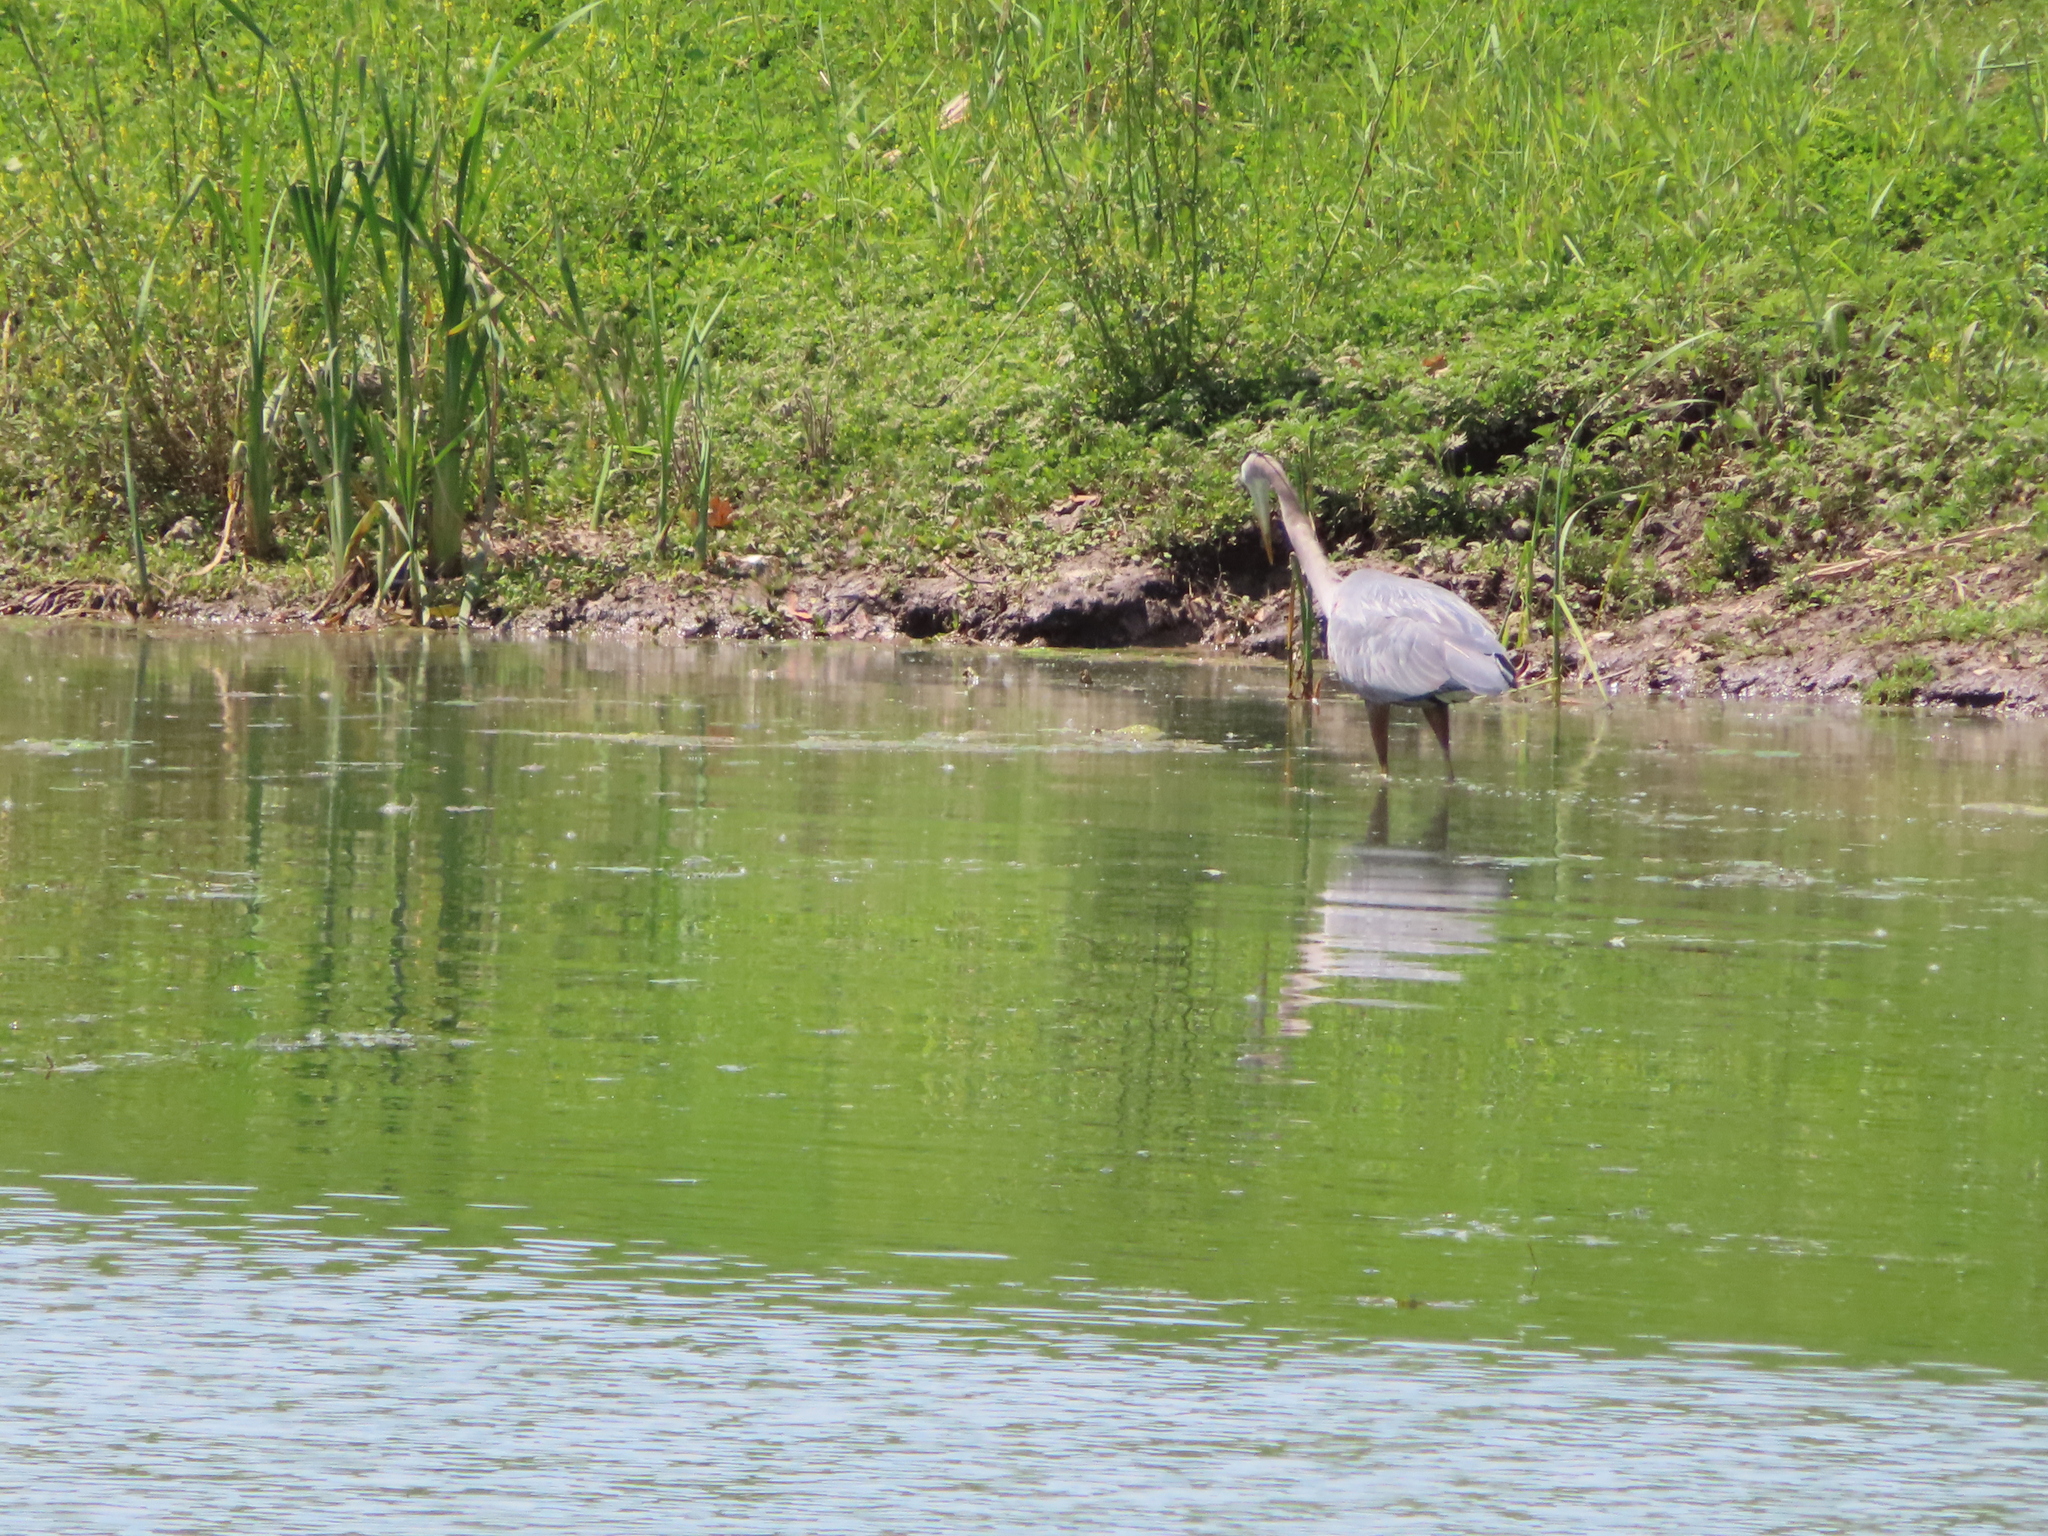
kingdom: Animalia
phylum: Chordata
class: Aves
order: Pelecaniformes
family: Ardeidae
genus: Ardea
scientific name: Ardea herodias
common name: Great blue heron
